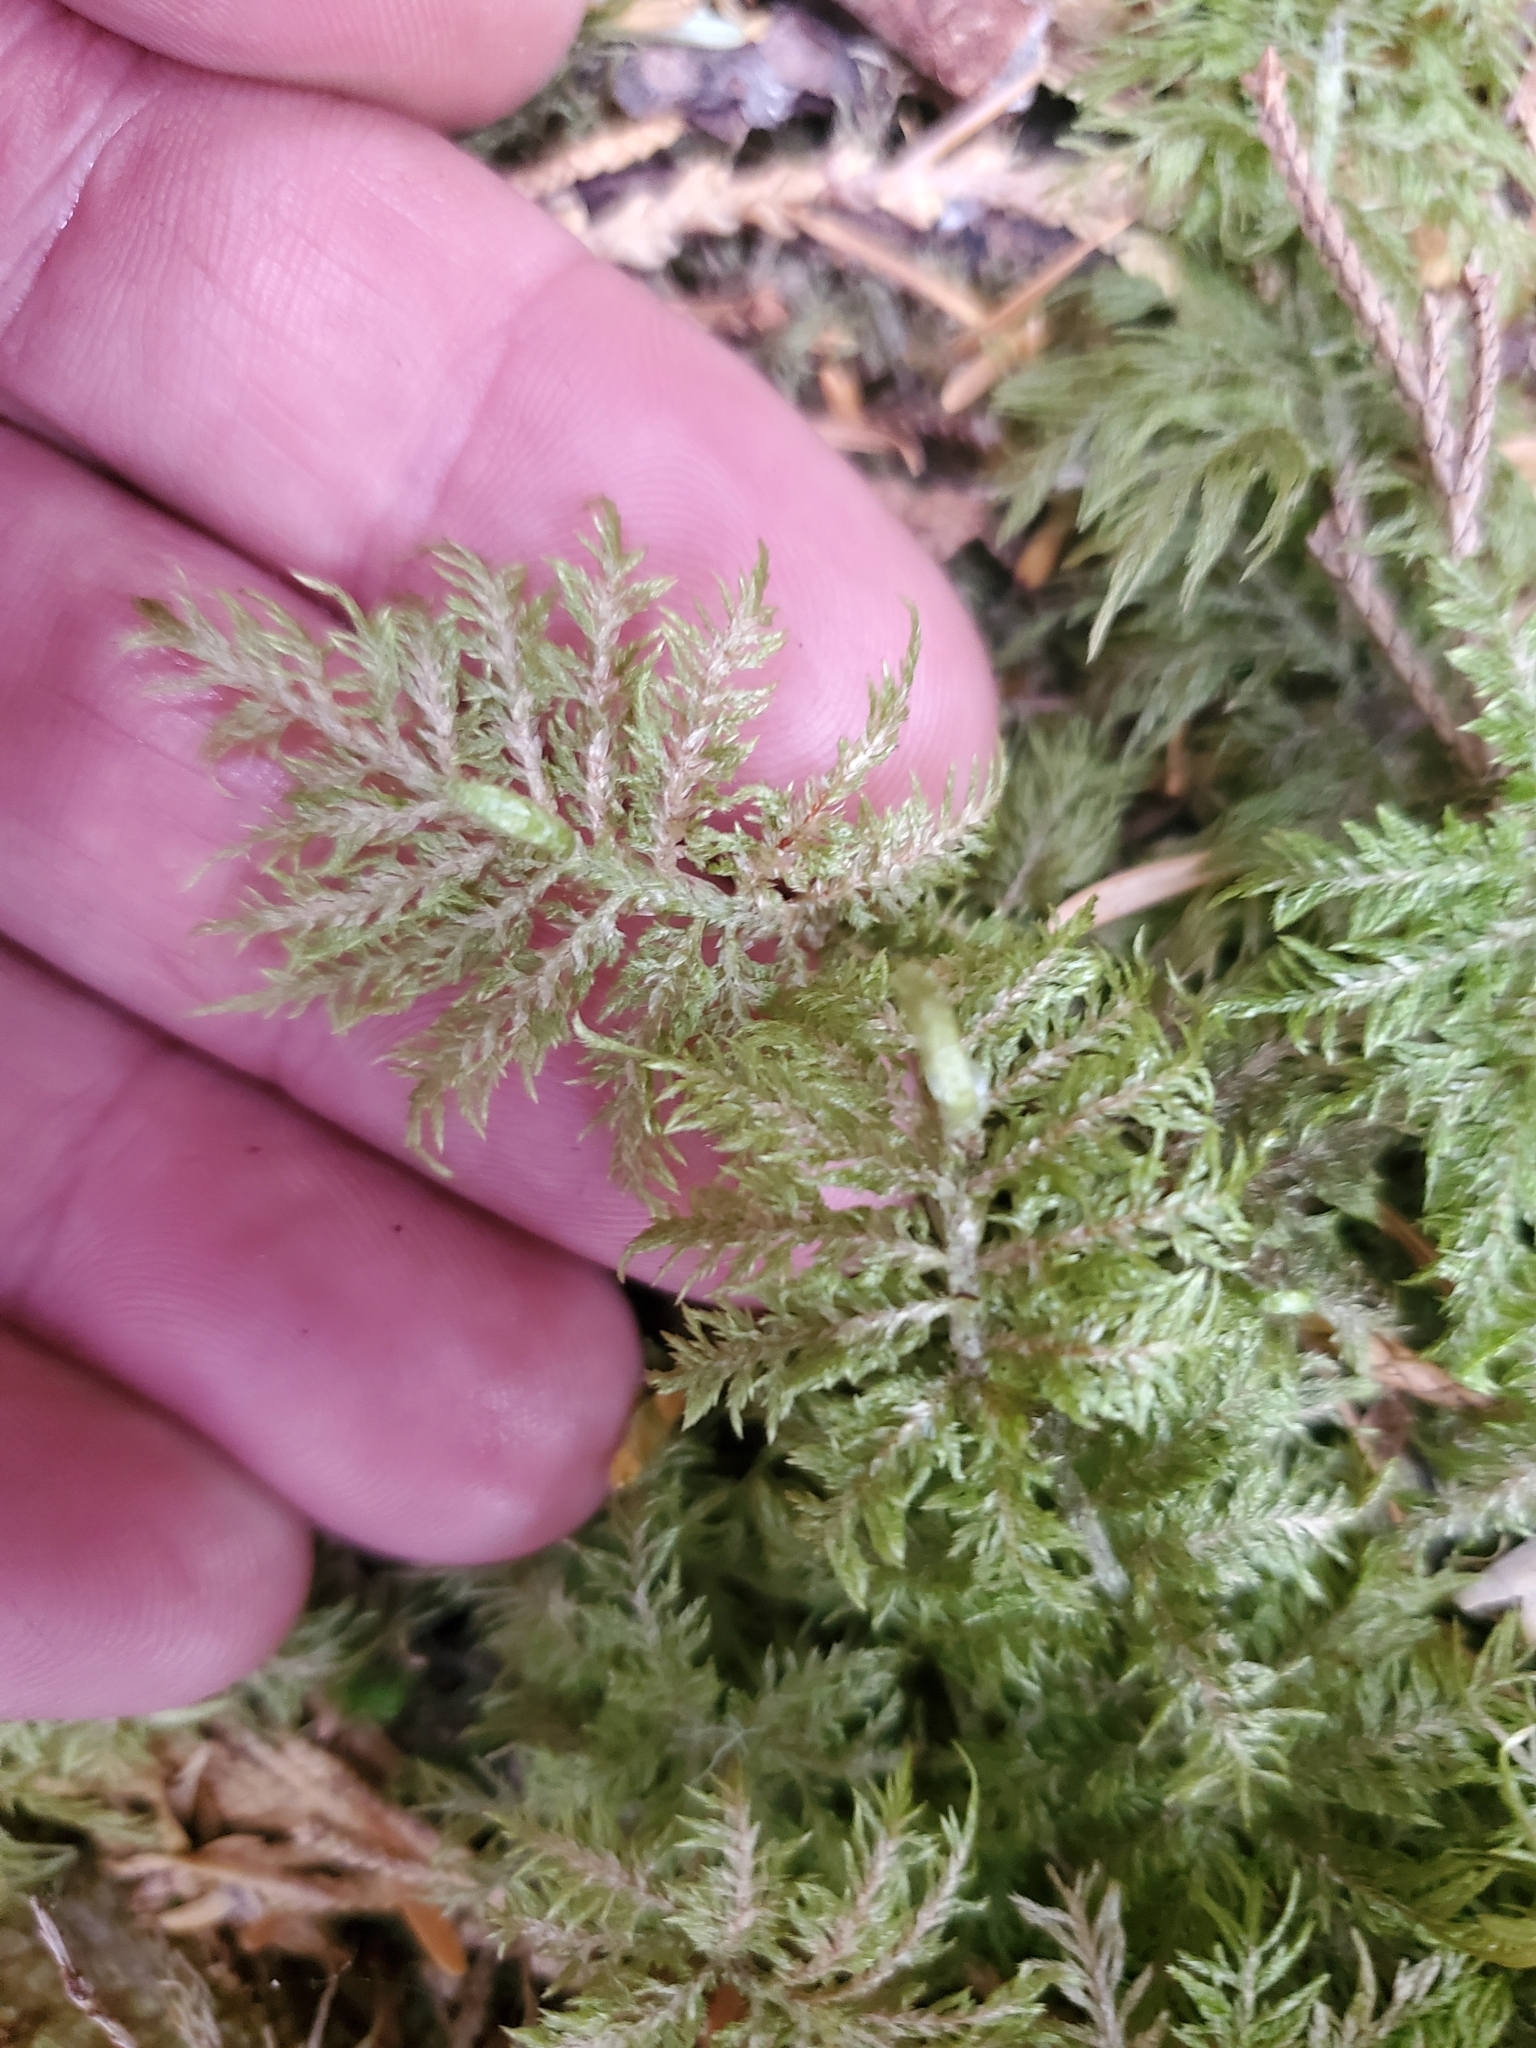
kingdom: Plantae
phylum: Bryophyta
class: Bryopsida
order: Hypnales
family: Hylocomiaceae
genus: Hylocomium
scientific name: Hylocomium splendens
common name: Stairstep moss
